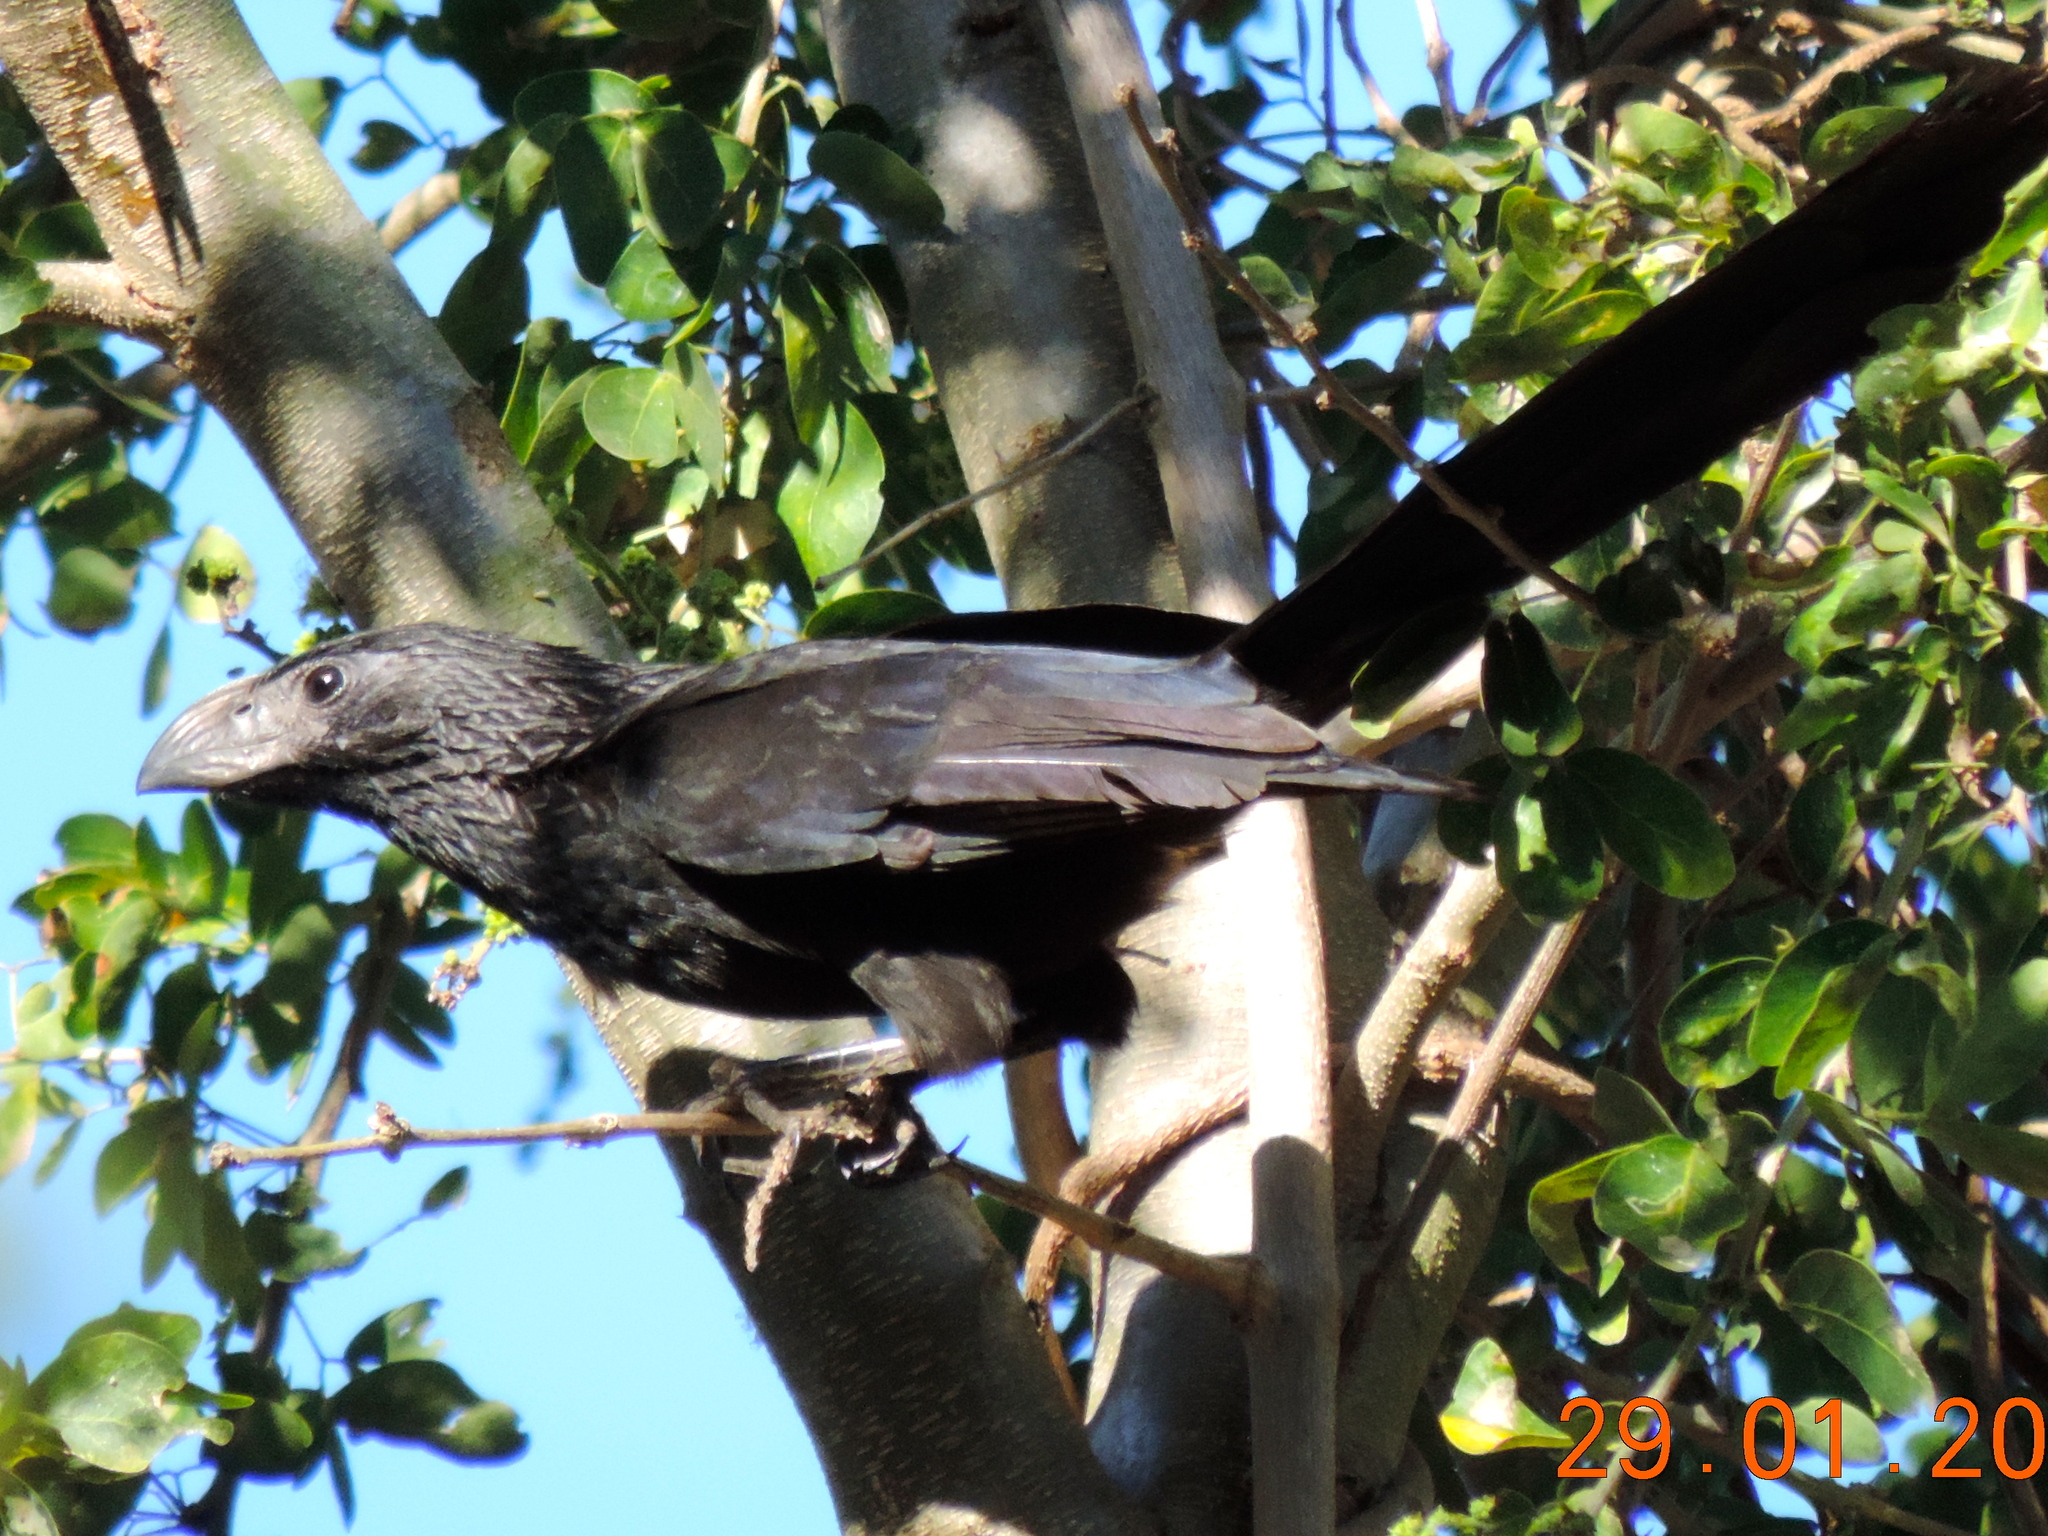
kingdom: Animalia
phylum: Chordata
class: Aves
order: Cuculiformes
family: Cuculidae
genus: Crotophaga
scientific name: Crotophaga sulcirostris
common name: Groove-billed ani
